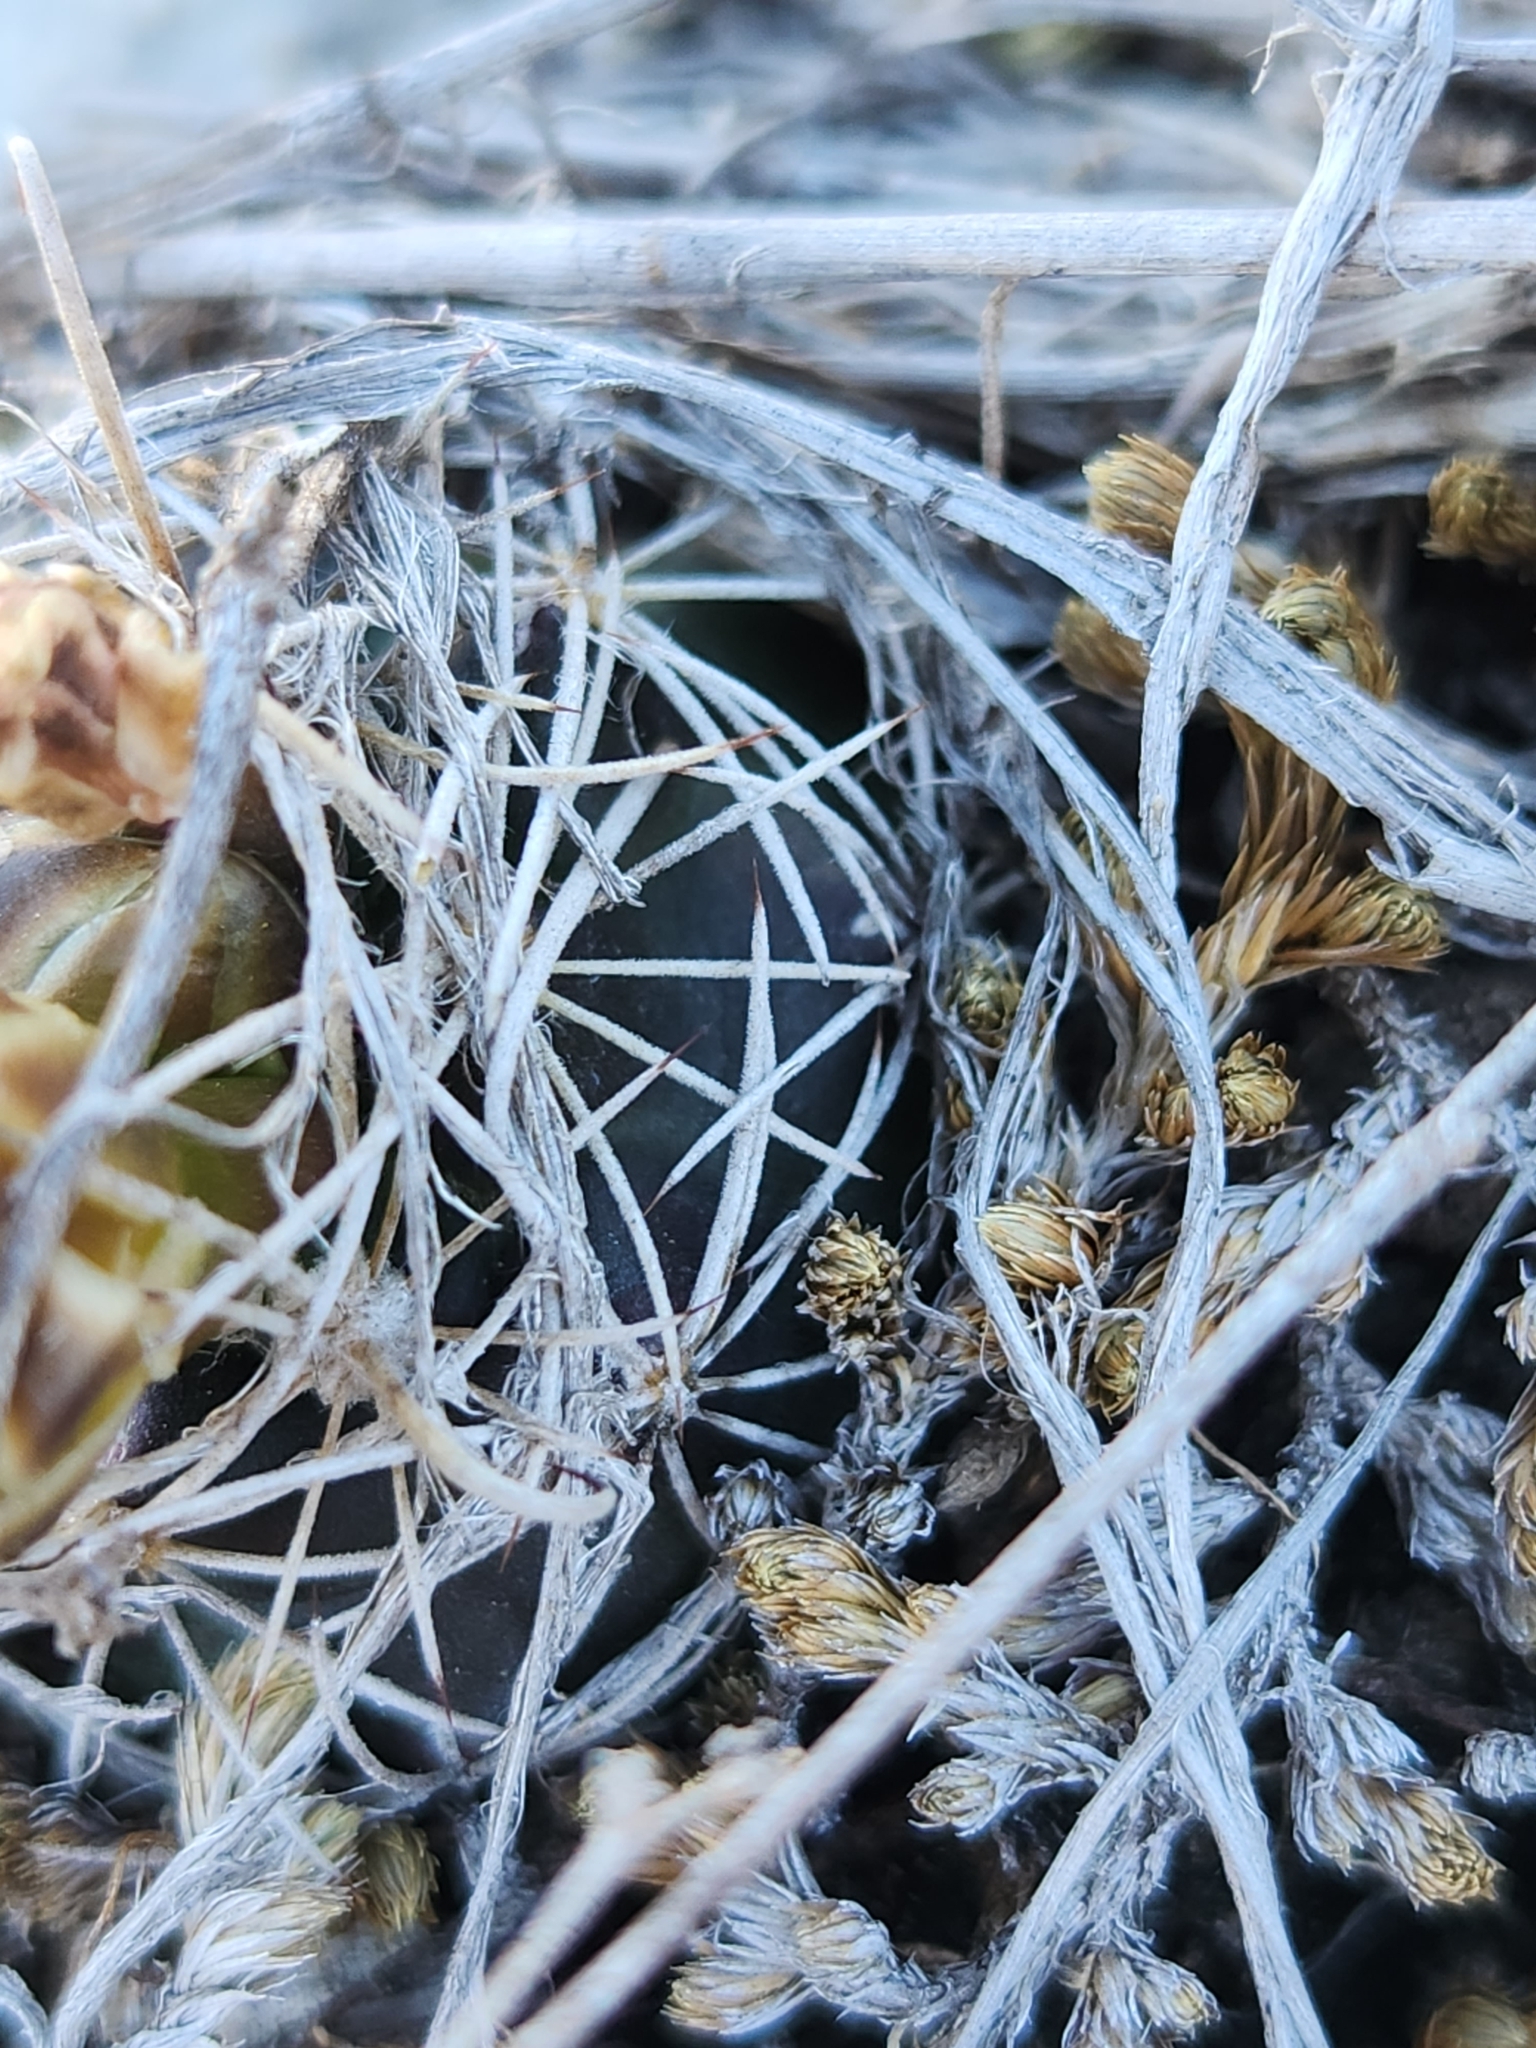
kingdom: Plantae
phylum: Tracheophyta
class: Magnoliopsida
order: Caryophyllales
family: Cactaceae
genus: Sclerocactus
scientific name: Sclerocactus brevihamatus
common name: Engelmann's fishhook cactus
